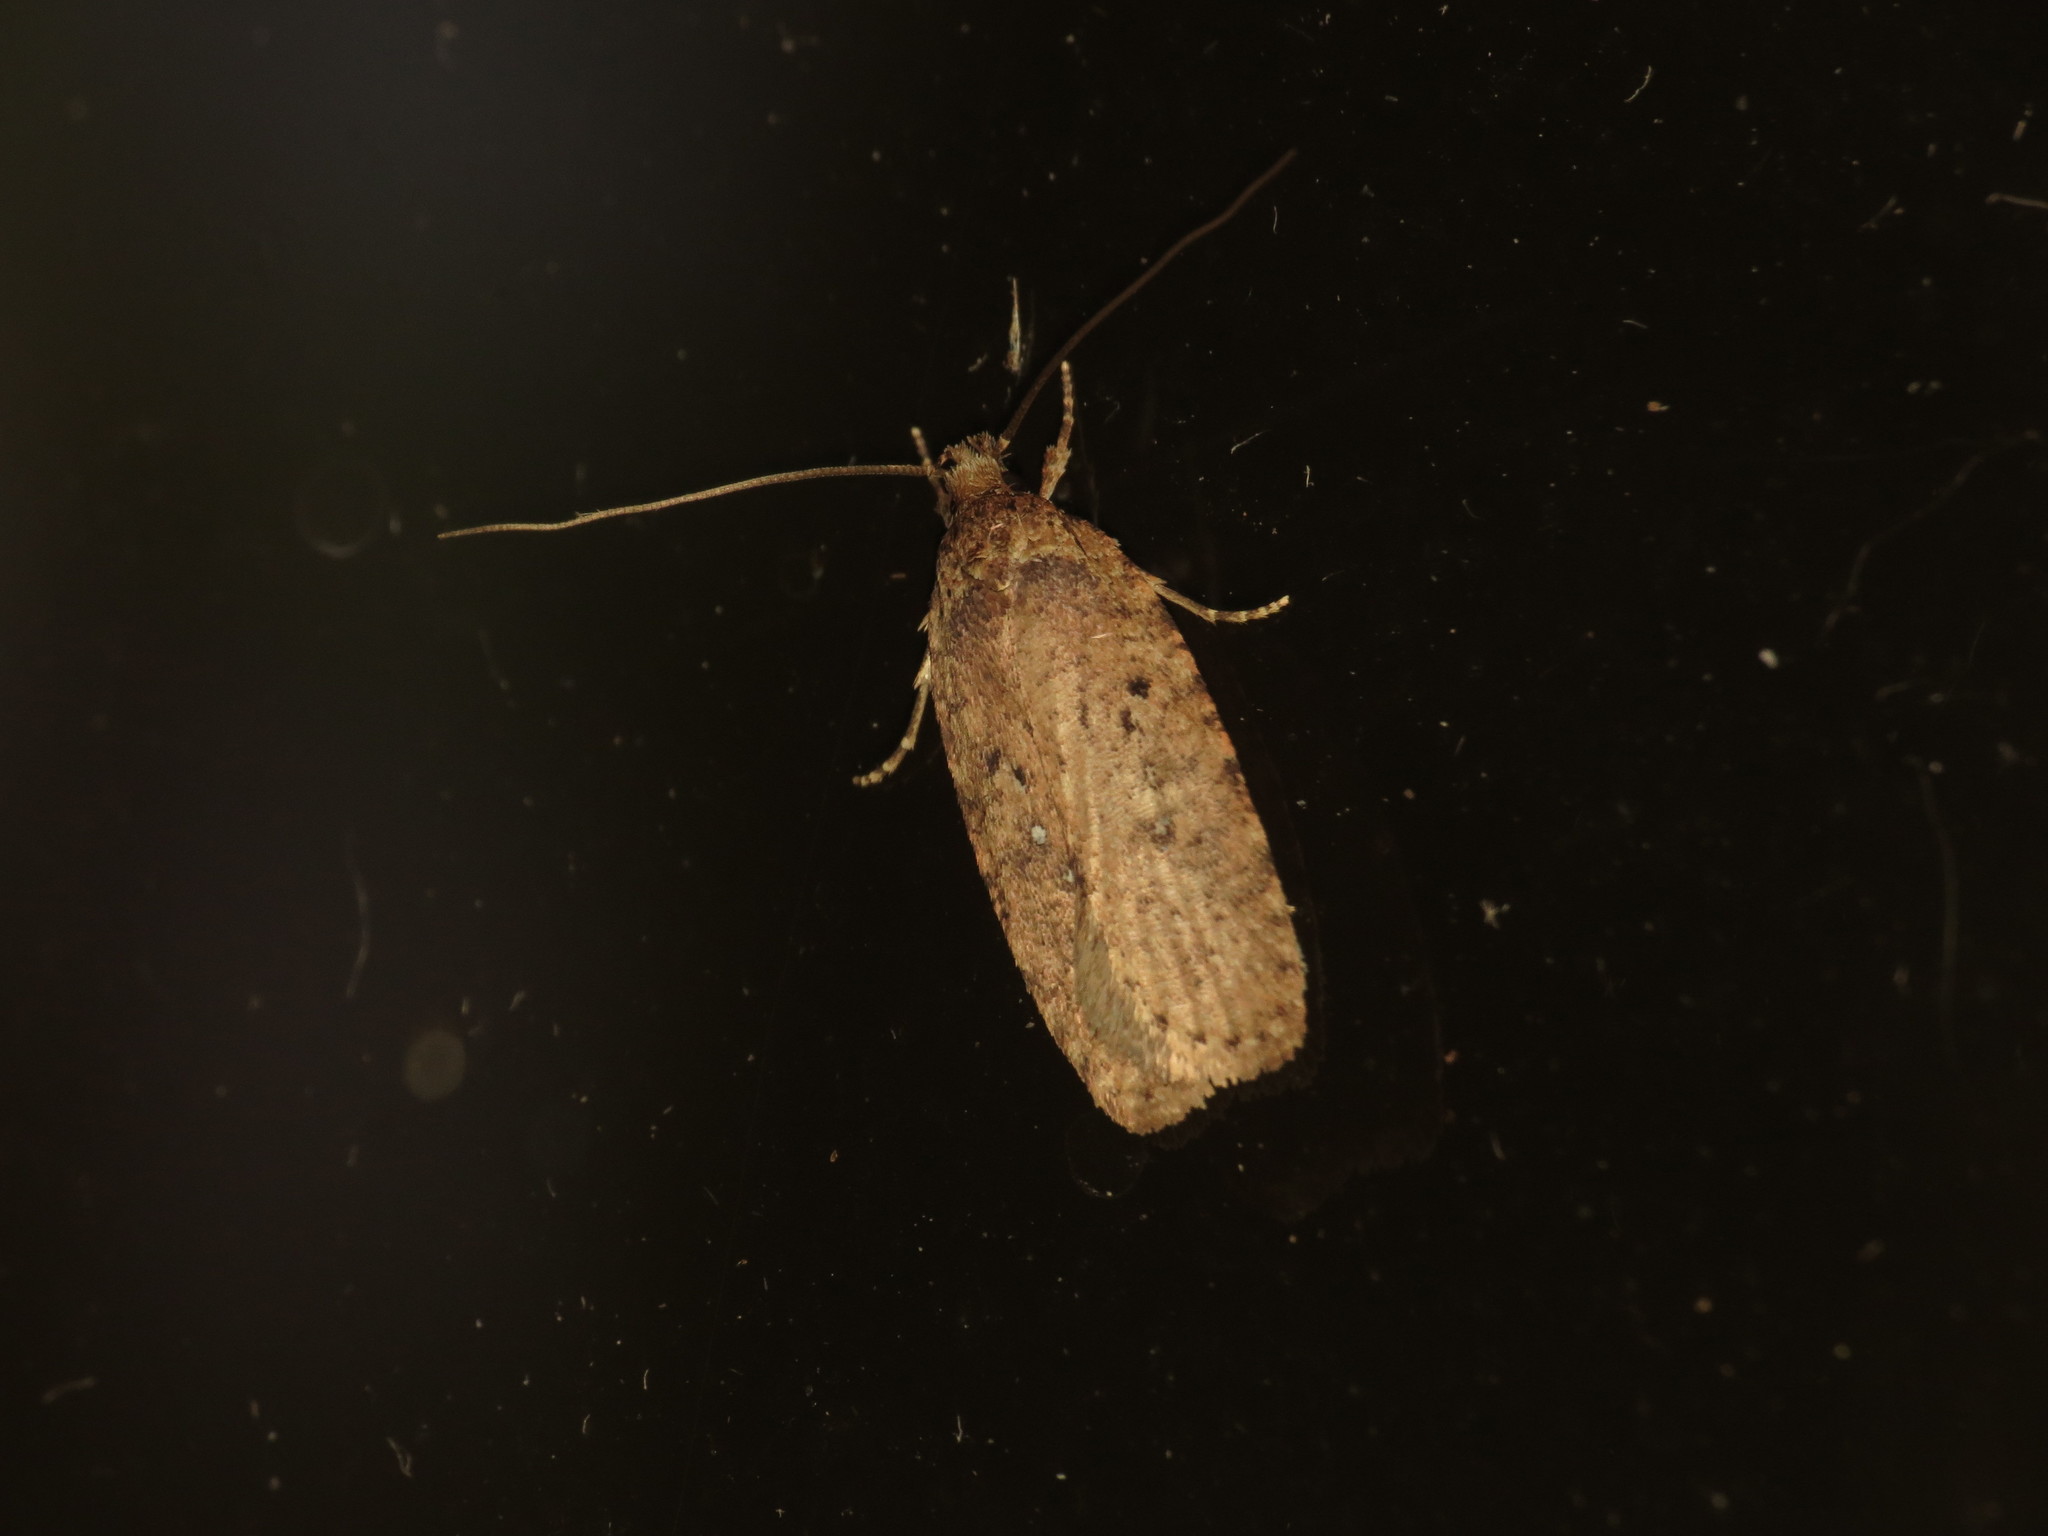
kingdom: Animalia
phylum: Arthropoda
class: Insecta
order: Lepidoptera
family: Depressariidae
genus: Agonopterix
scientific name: Agonopterix heracliana
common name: Common flat-body
